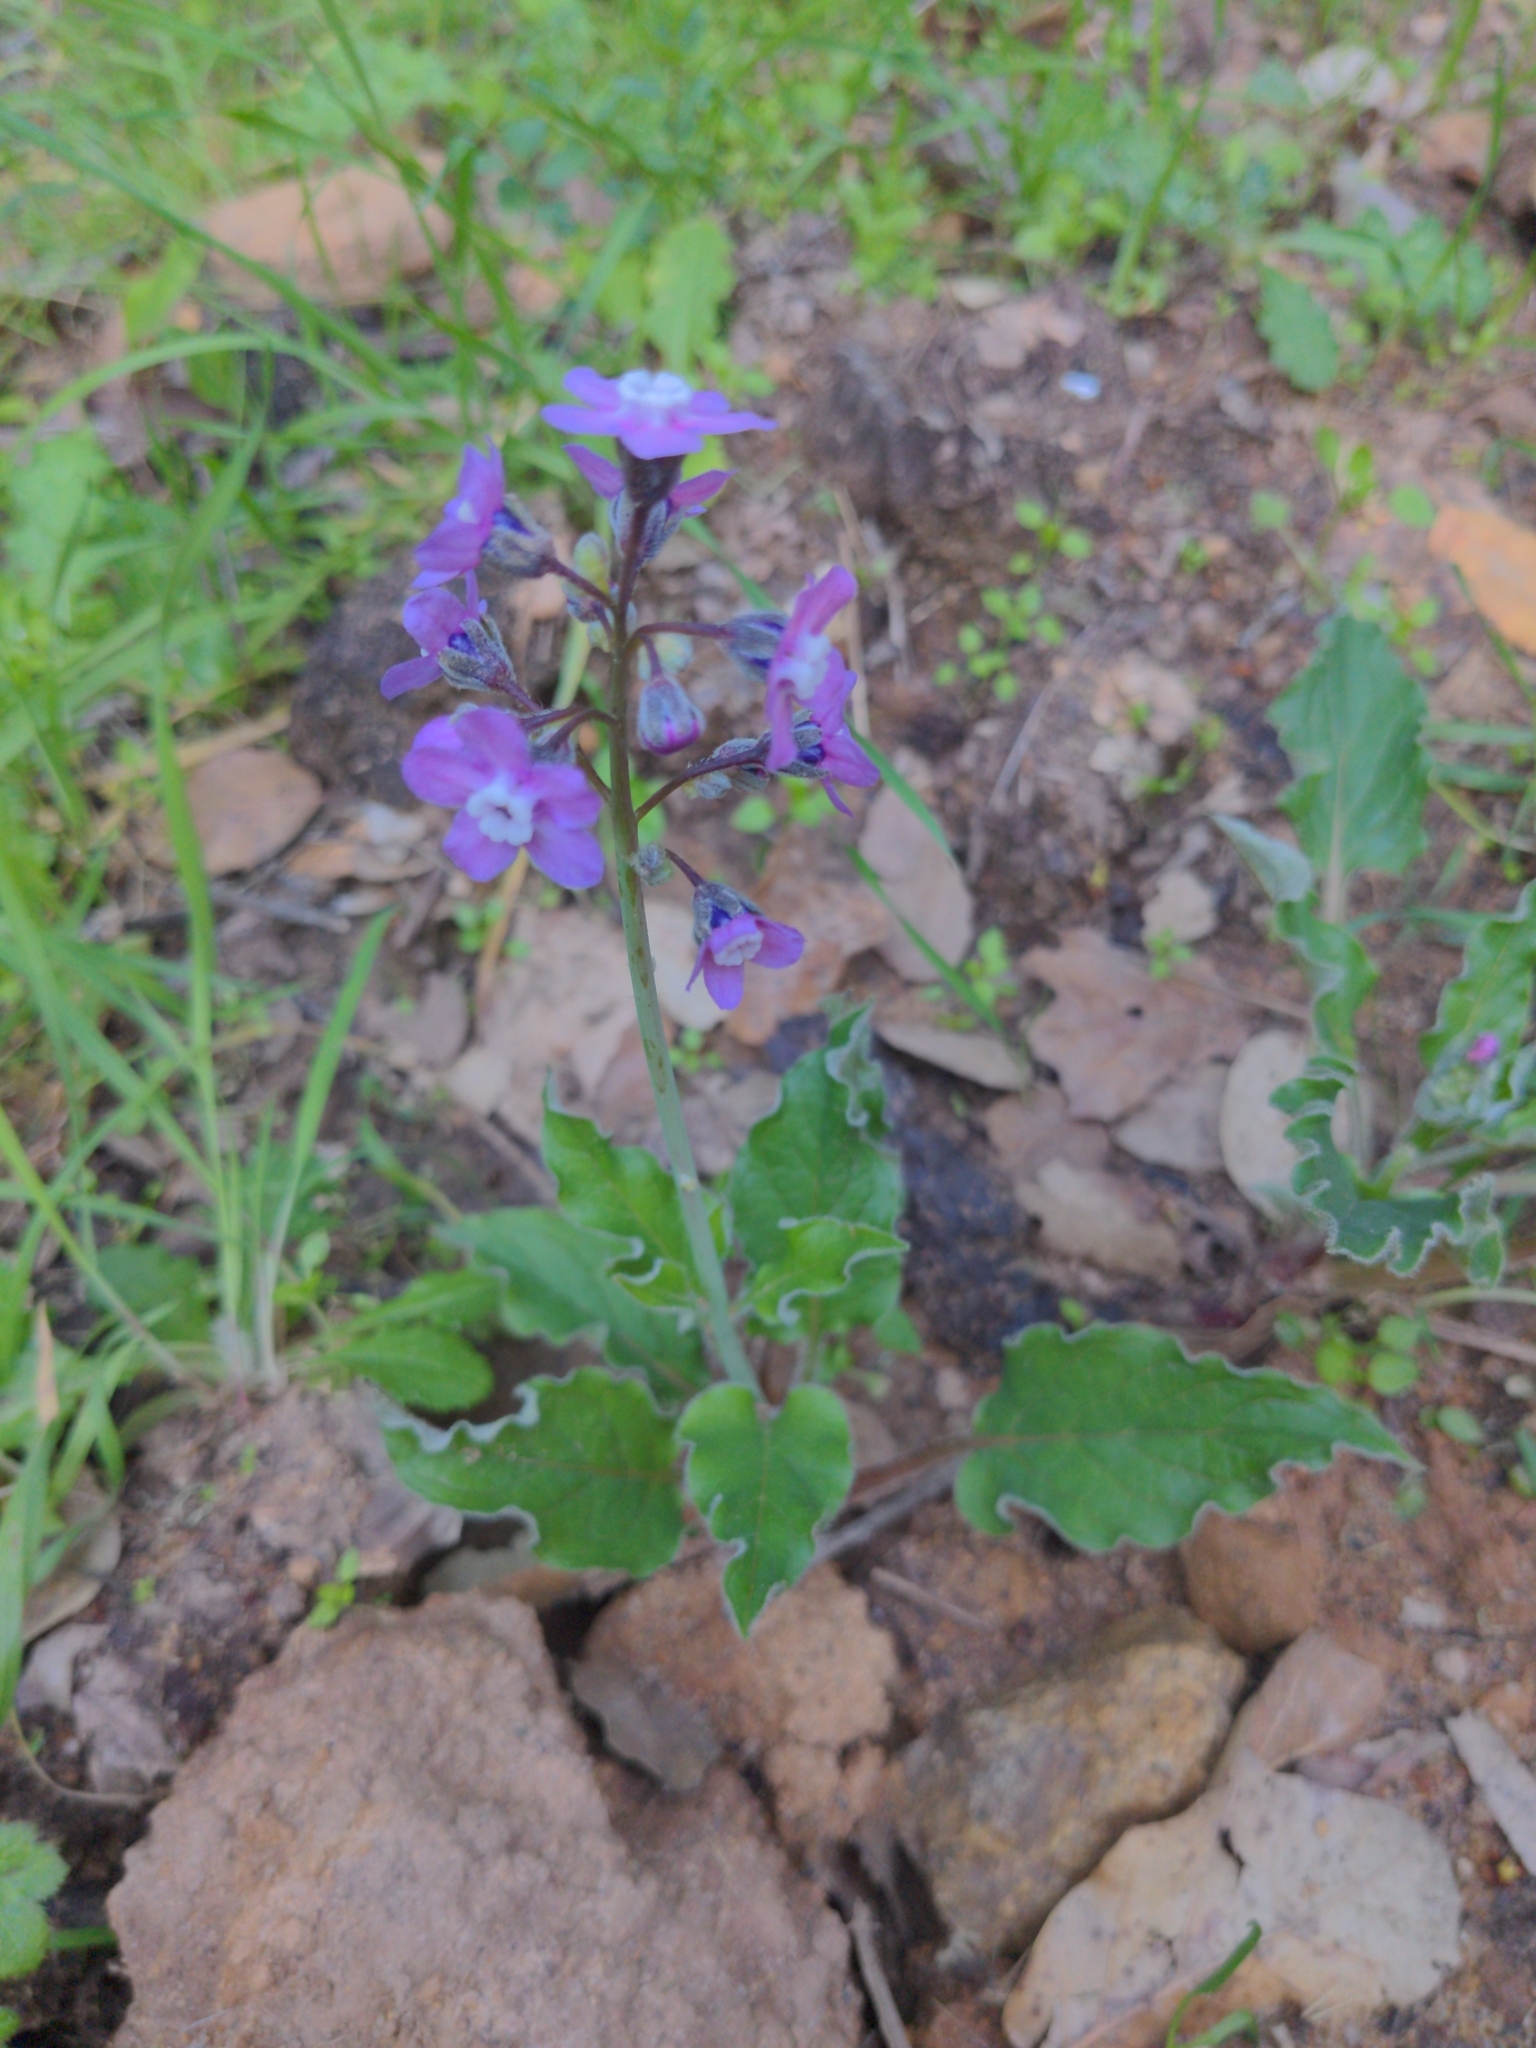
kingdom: Plantae
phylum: Tracheophyta
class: Magnoliopsida
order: Boraginales
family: Boraginaceae
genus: Adelinia
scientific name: Adelinia grande
